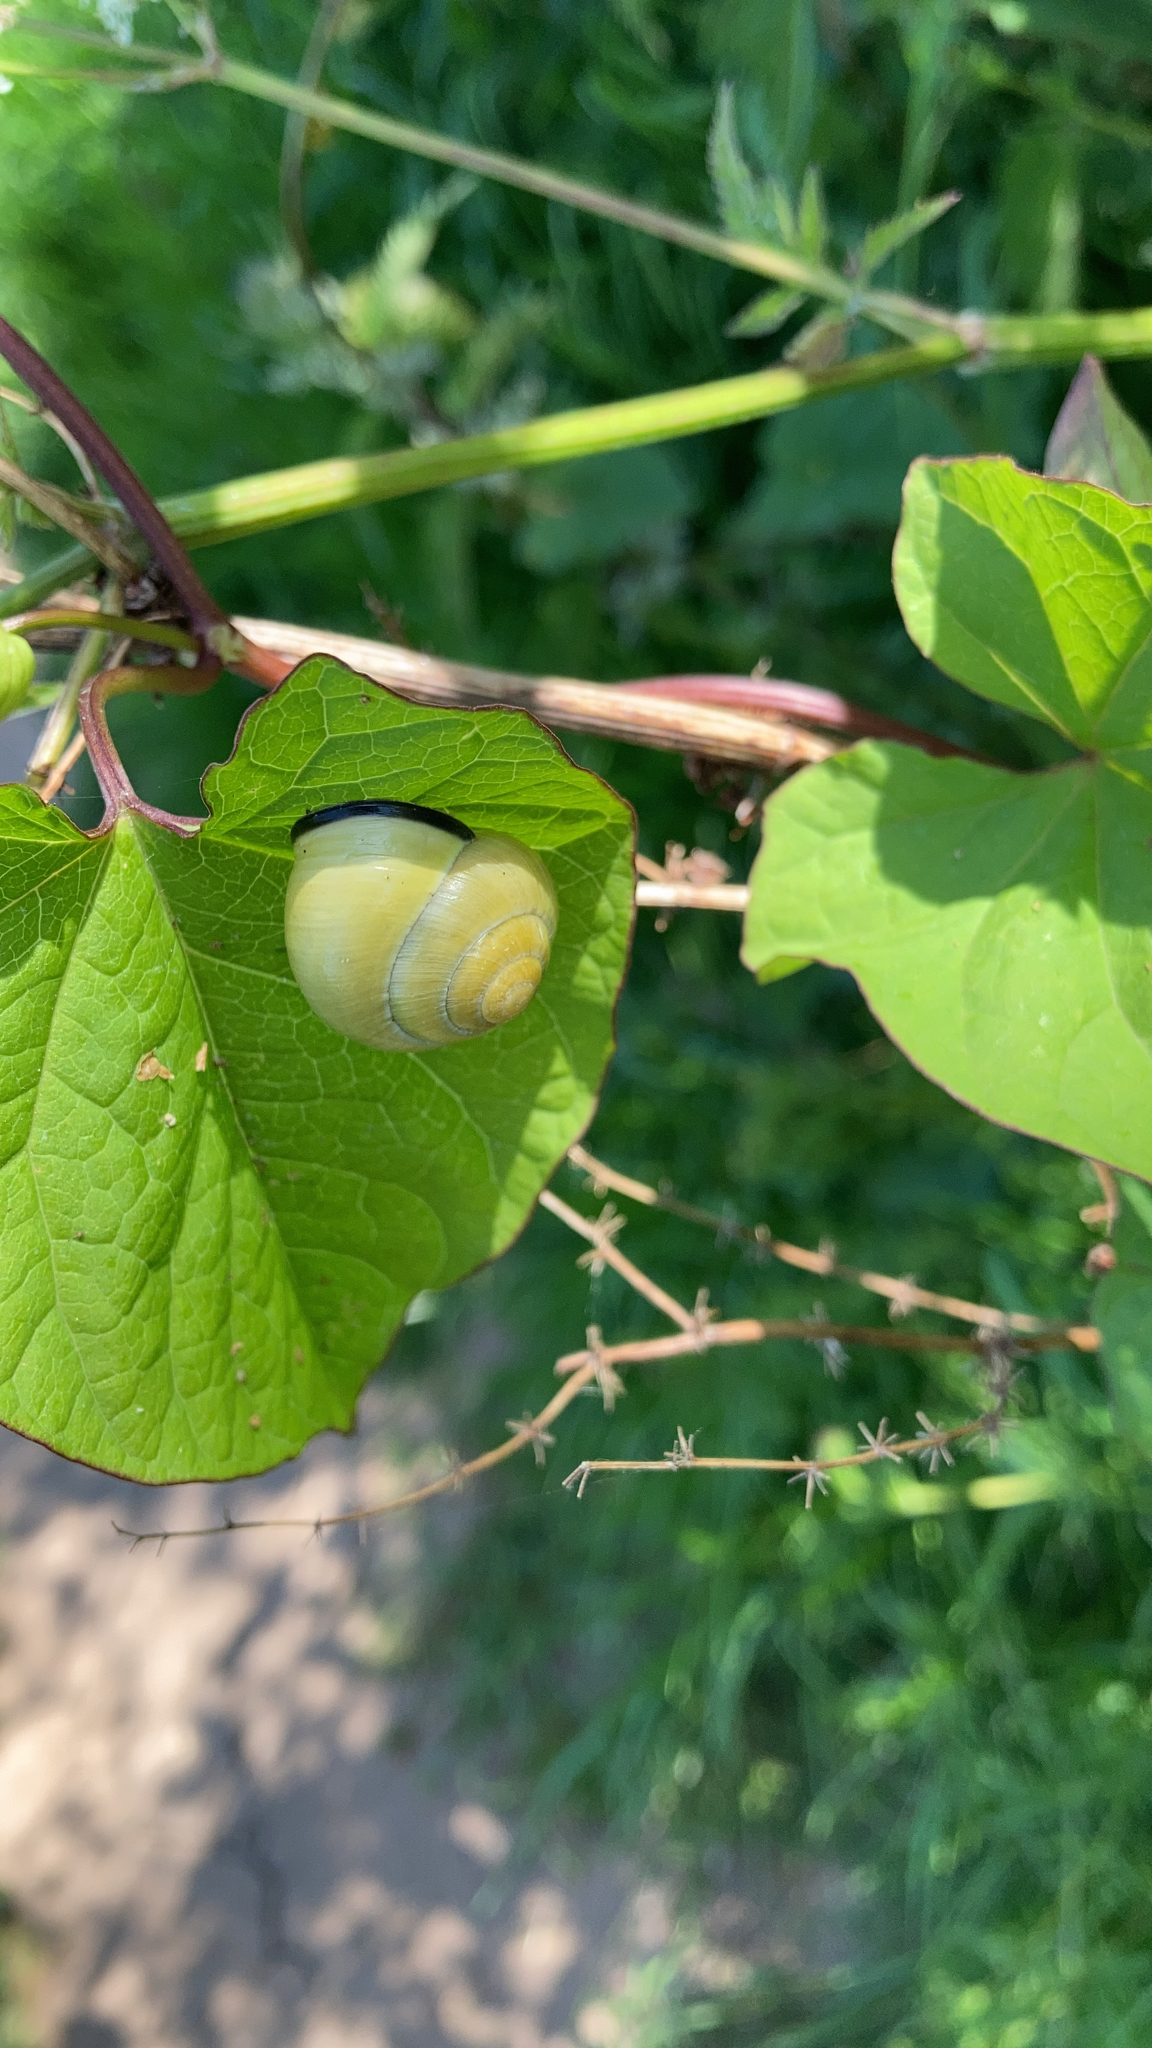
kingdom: Animalia
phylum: Mollusca
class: Gastropoda
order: Stylommatophora
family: Helicidae
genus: Cepaea
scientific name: Cepaea nemoralis
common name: Grovesnail
